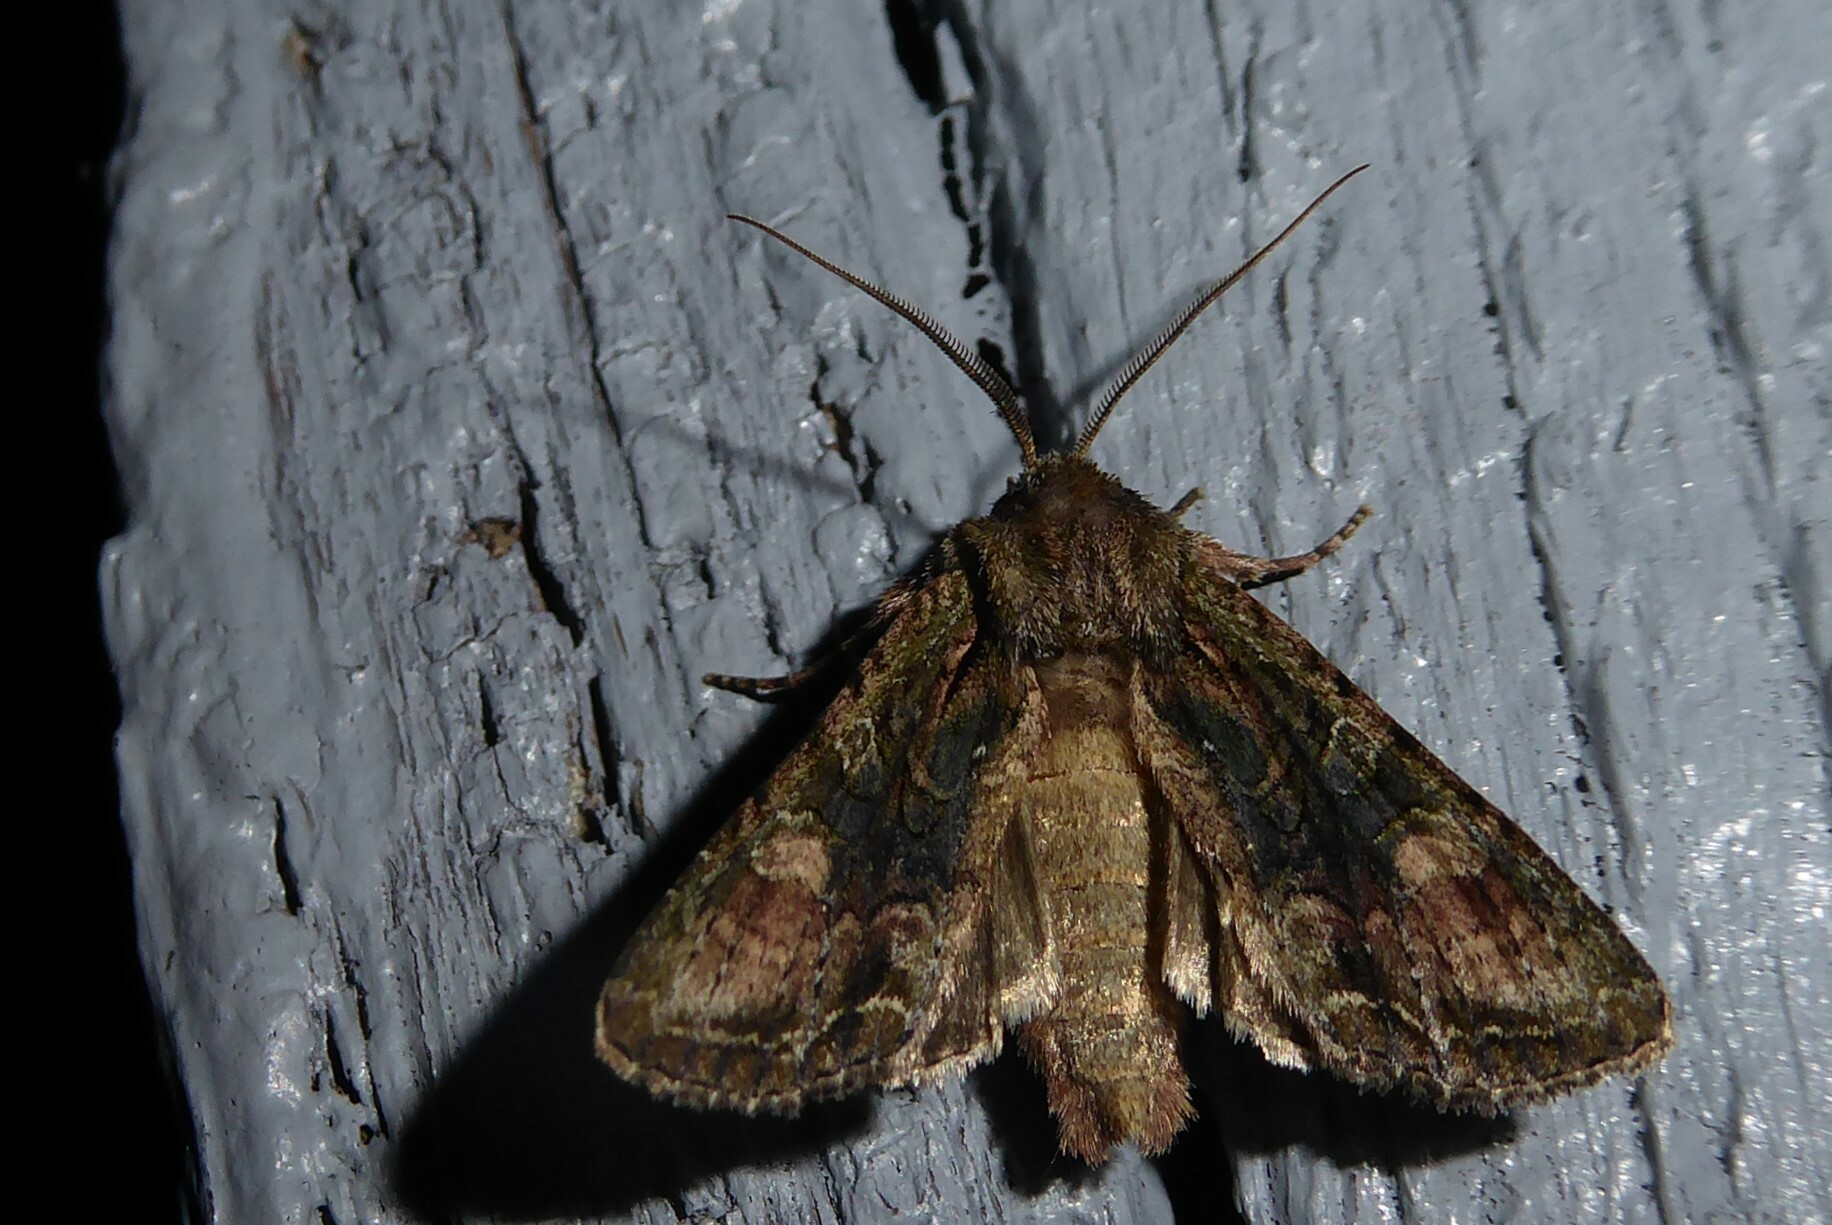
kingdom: Animalia
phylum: Arthropoda
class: Insecta
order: Lepidoptera
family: Noctuidae
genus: Ichneutica
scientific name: Ichneutica mutans
